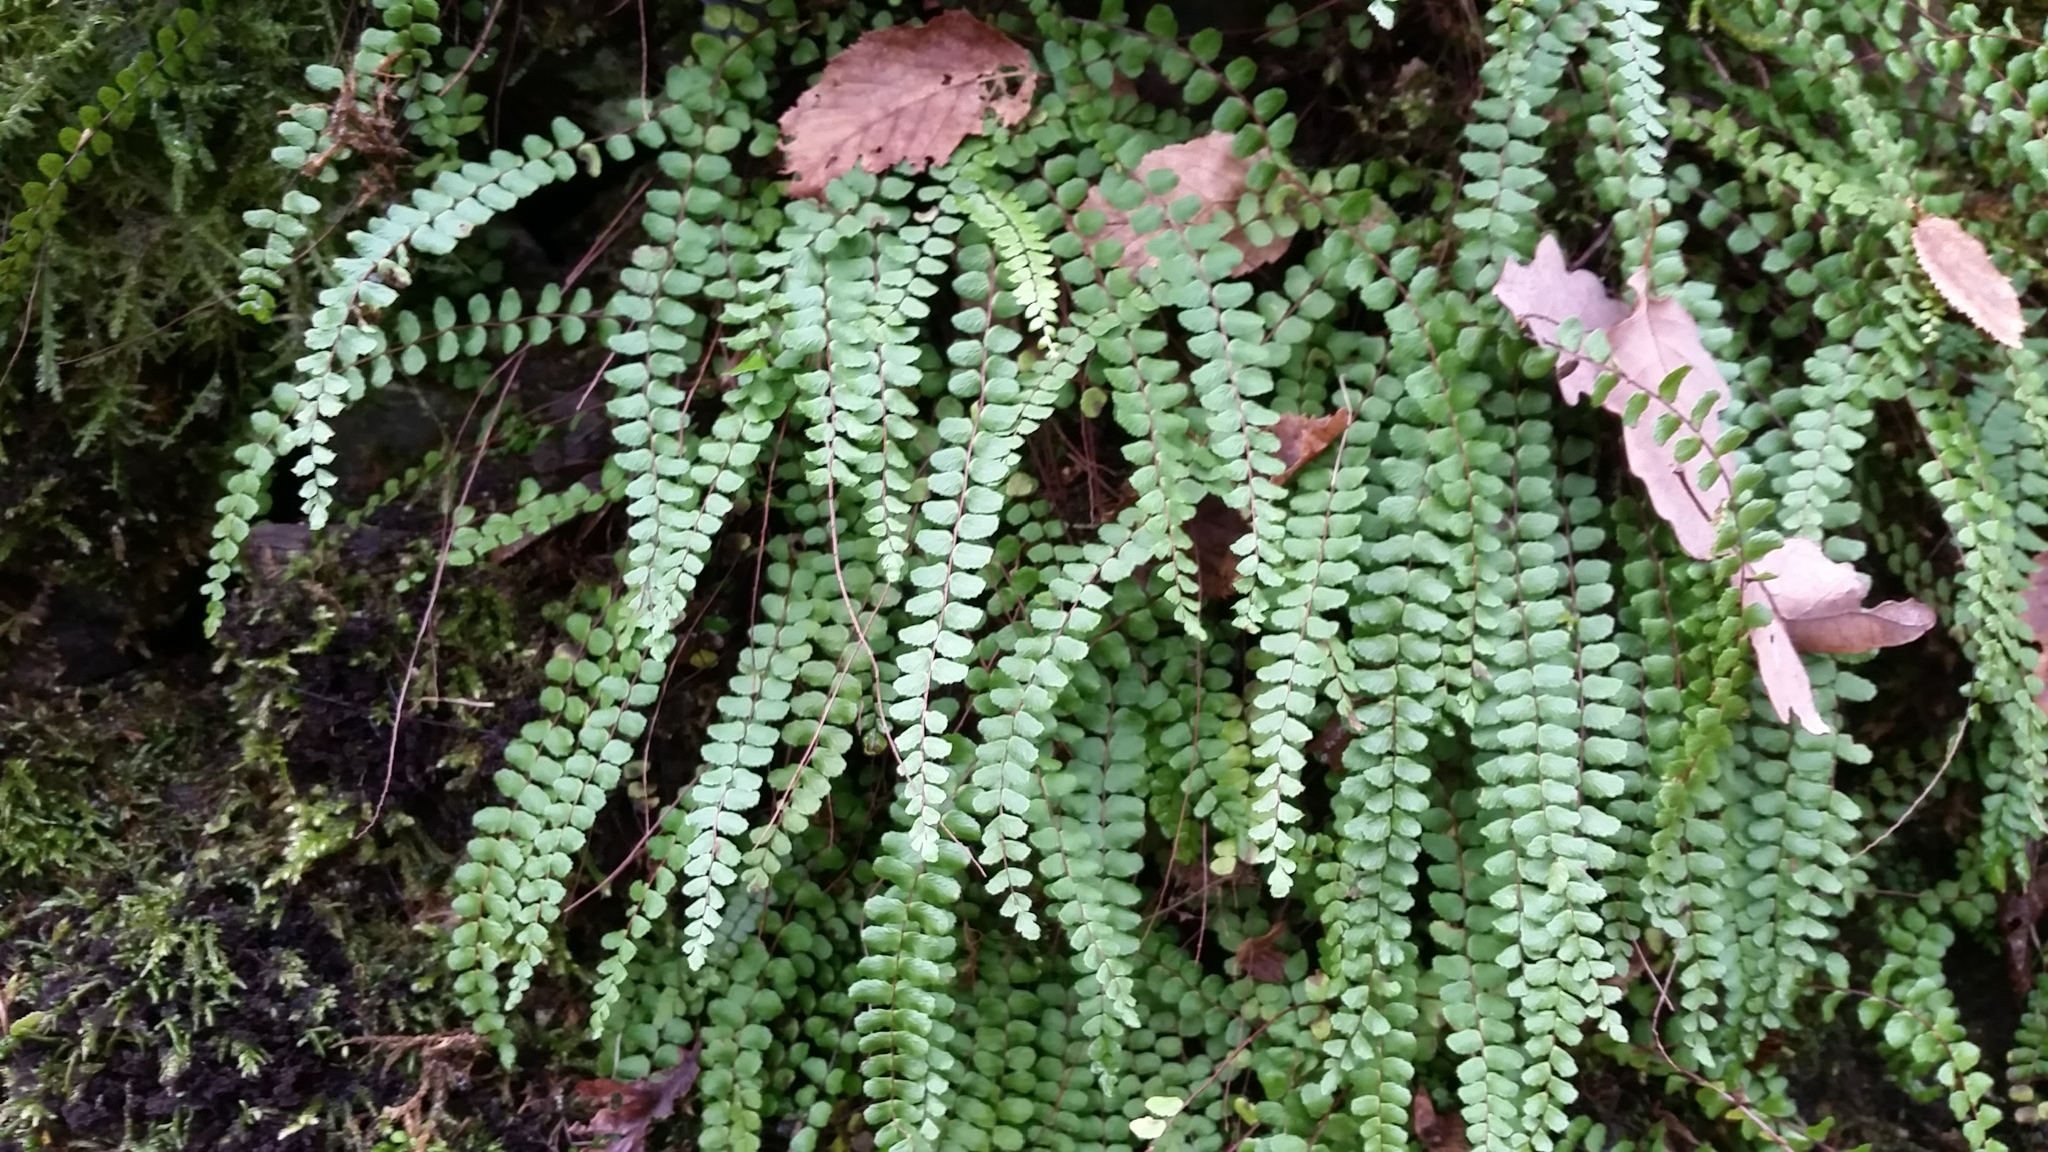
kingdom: Plantae
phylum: Tracheophyta
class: Polypodiopsida
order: Polypodiales
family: Aspleniaceae
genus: Asplenium
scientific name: Asplenium trichomanes
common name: Maidenhair spleenwort
